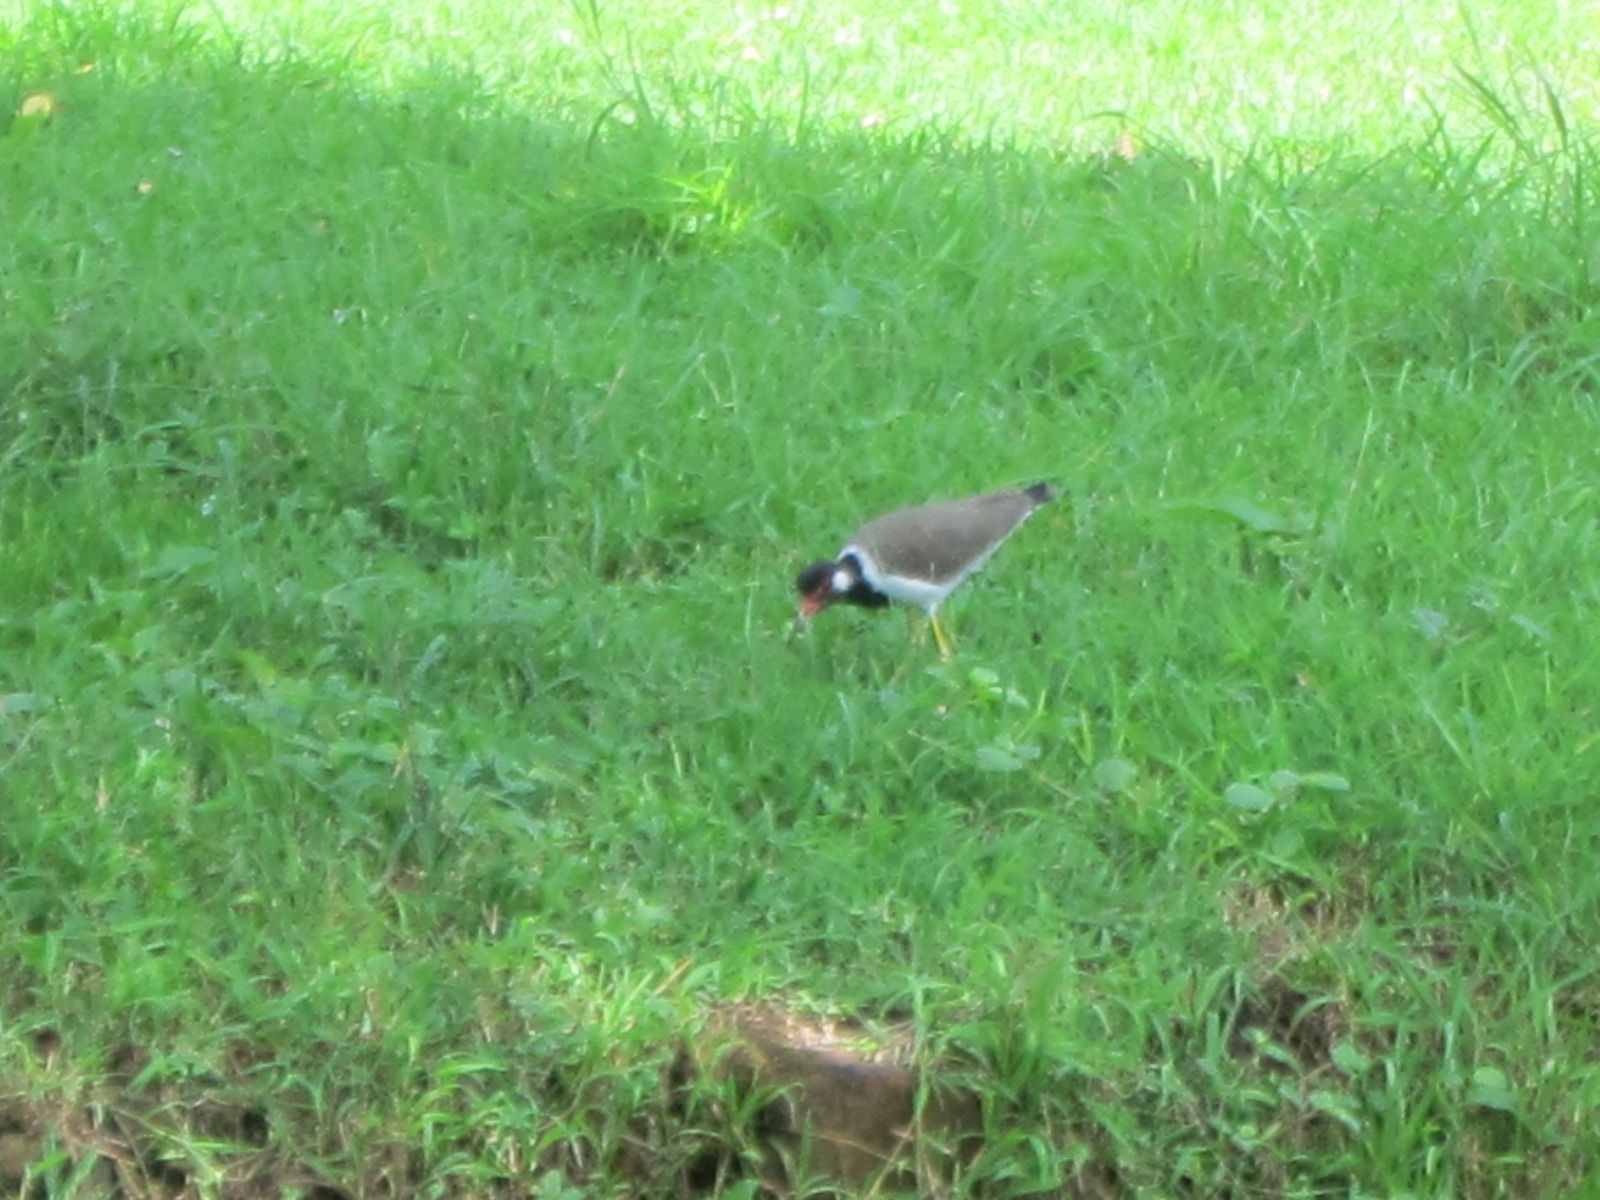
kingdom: Animalia
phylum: Chordata
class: Aves
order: Charadriiformes
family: Charadriidae
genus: Vanellus
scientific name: Vanellus indicus
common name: Red-wattled lapwing
